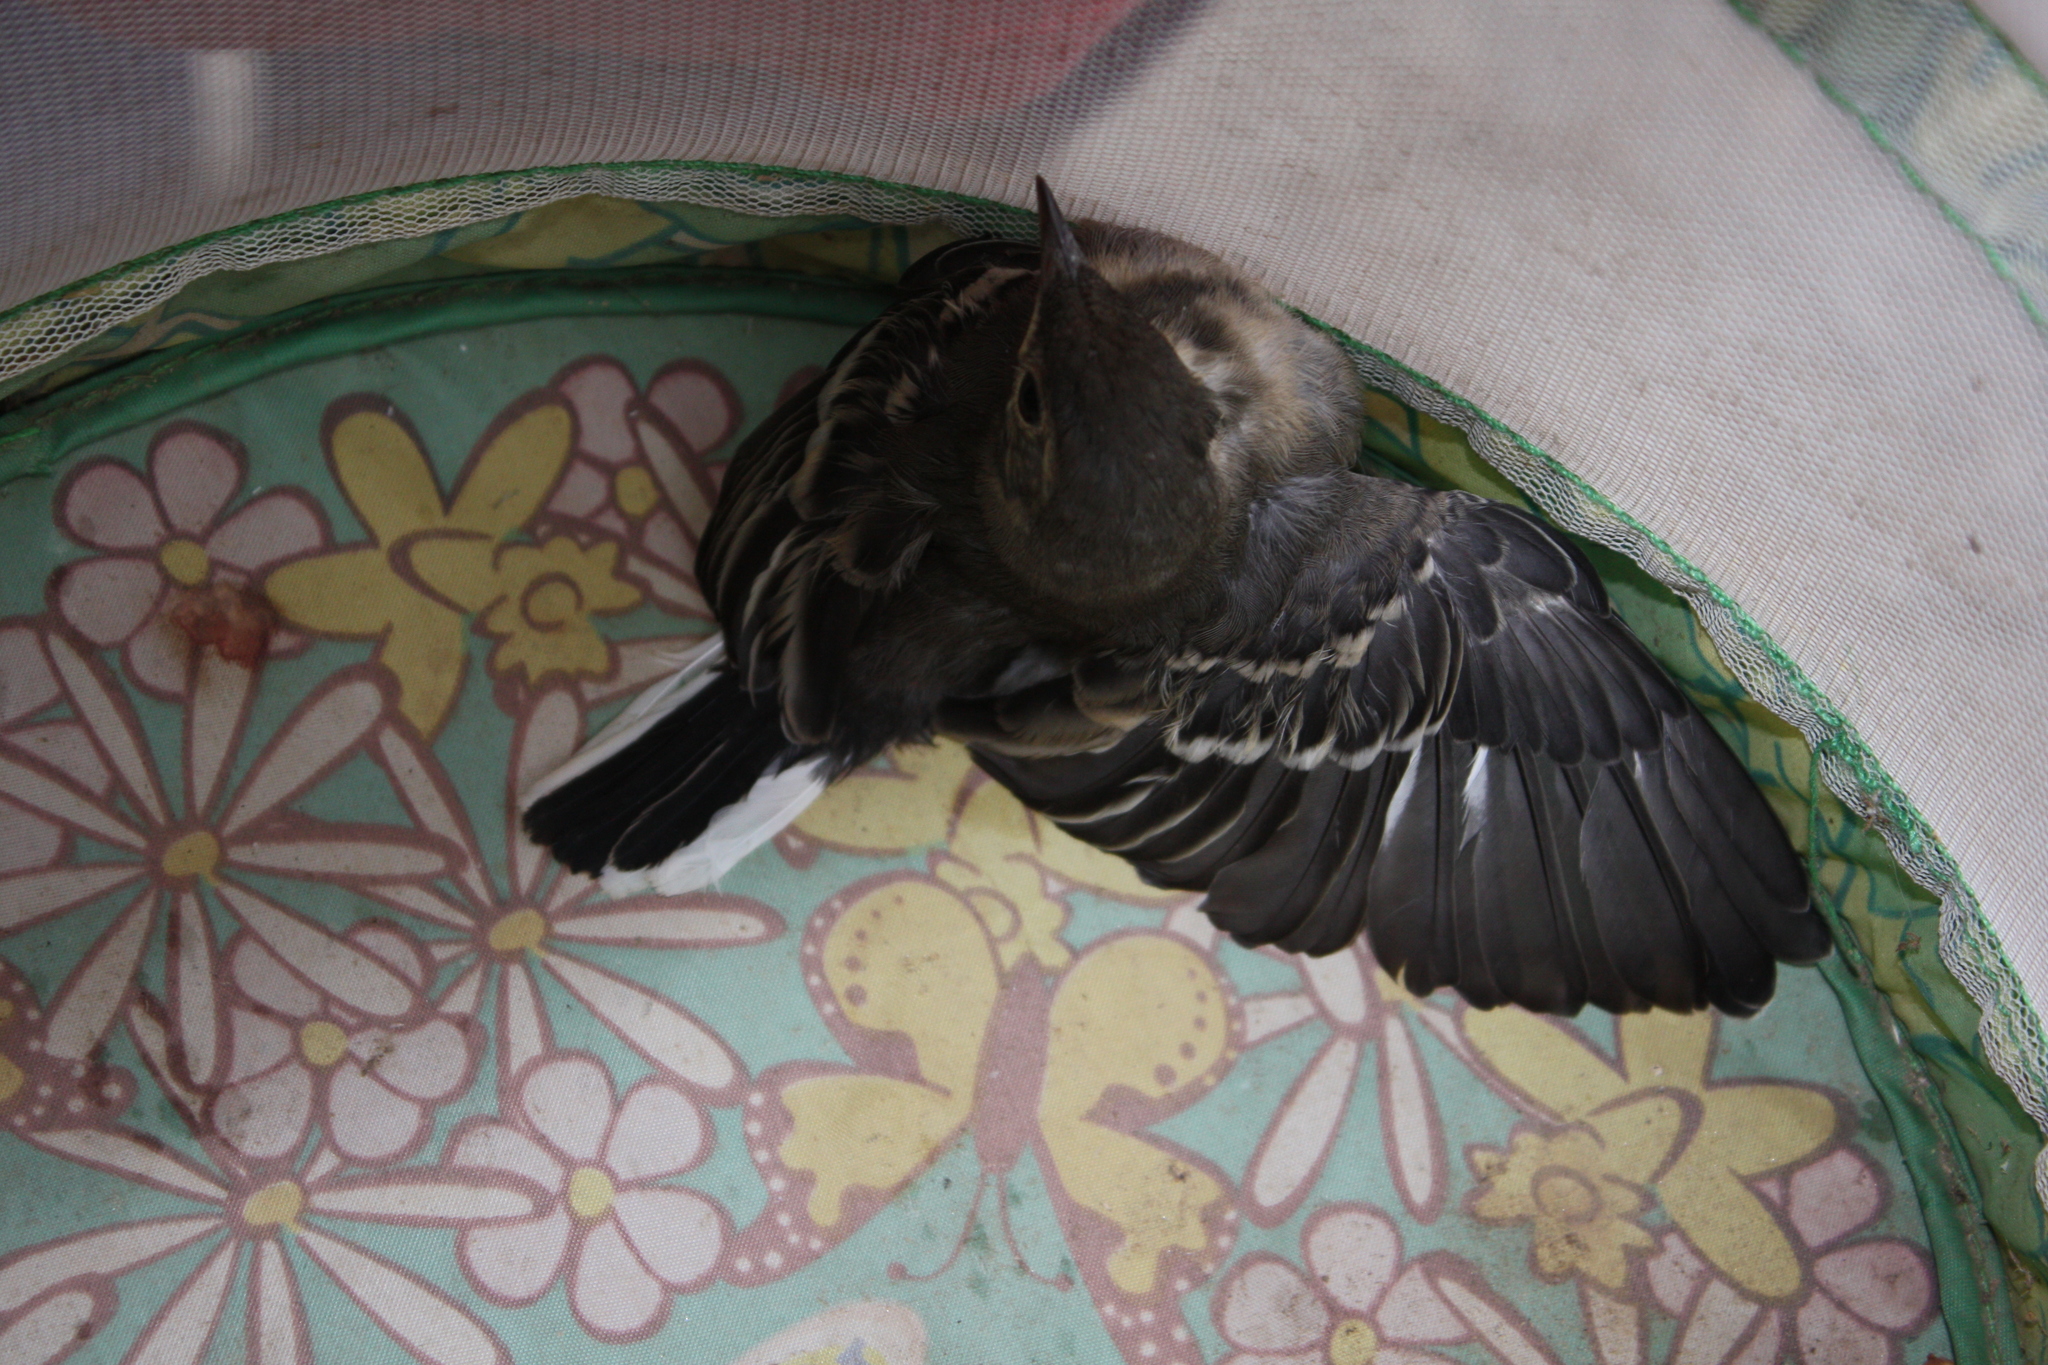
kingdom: Animalia
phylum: Chordata
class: Aves
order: Passeriformes
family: Motacillidae
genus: Motacilla
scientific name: Motacilla alba
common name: White wagtail
